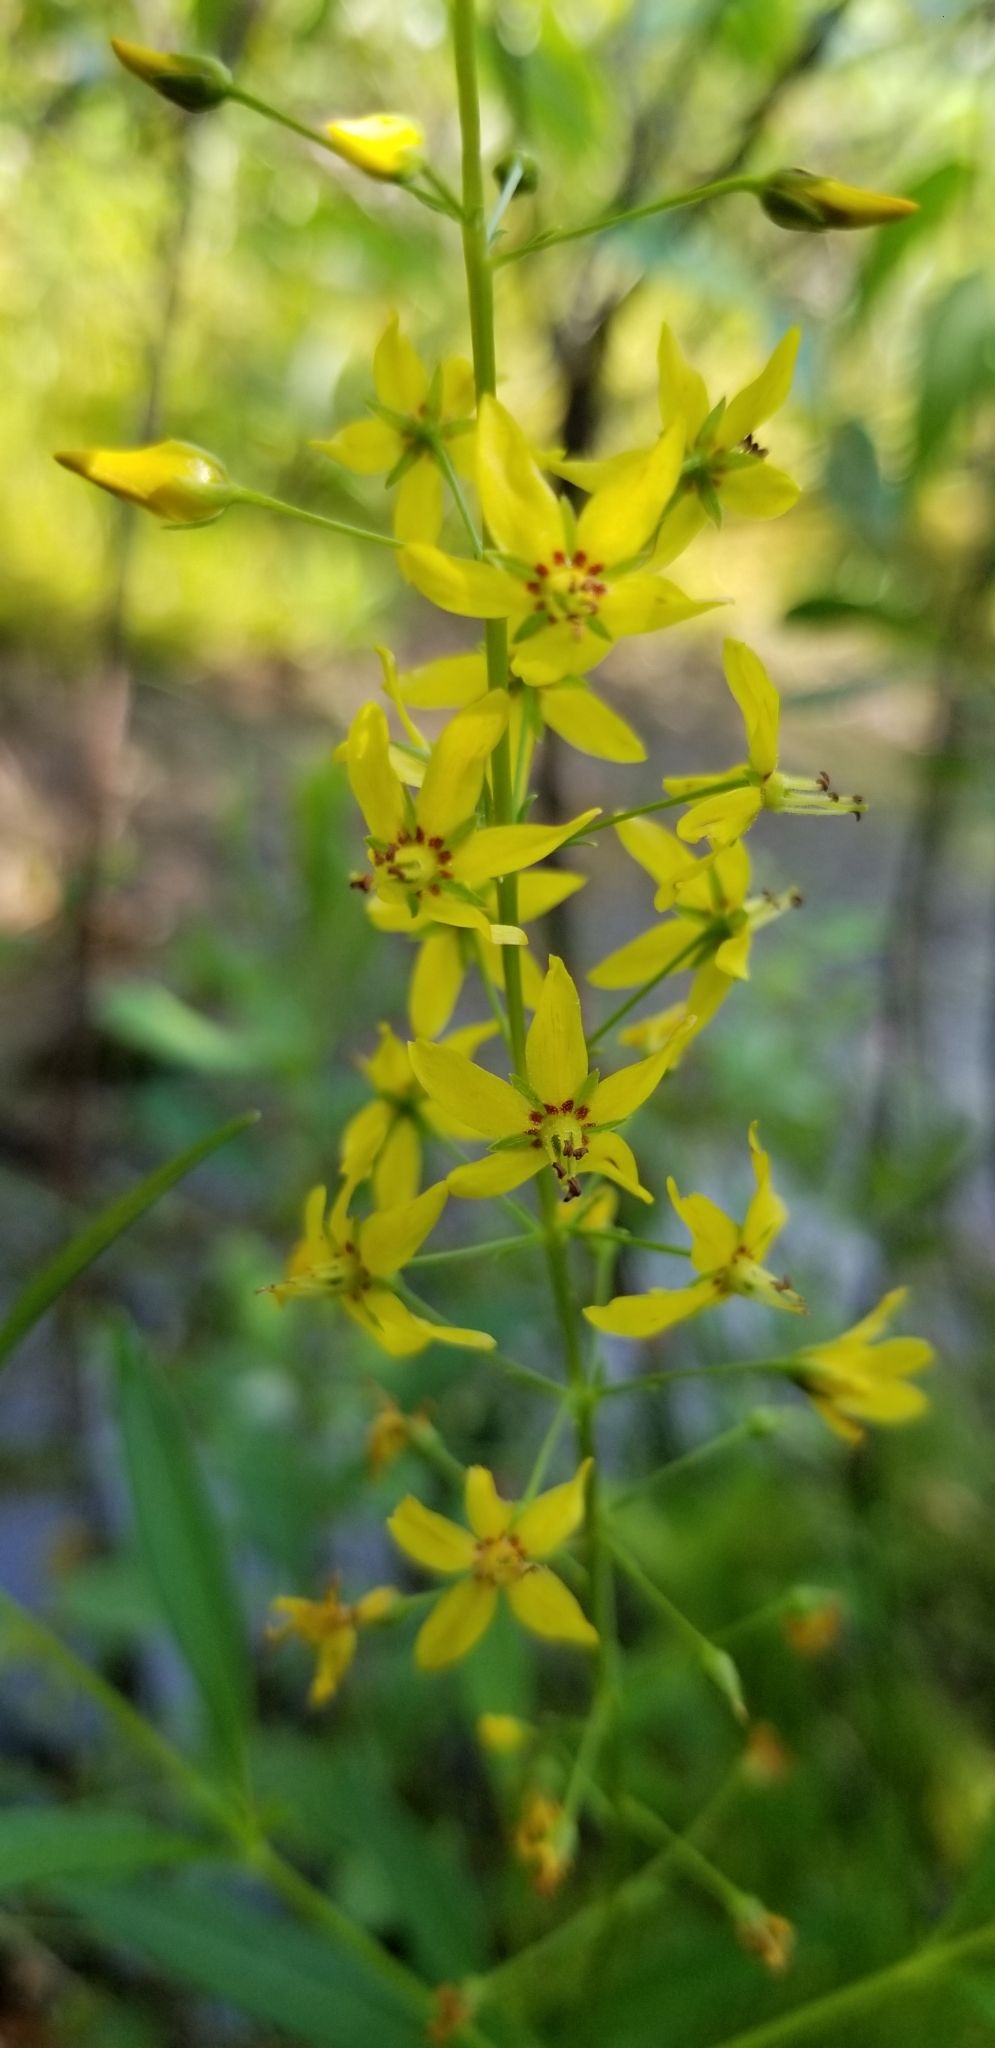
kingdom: Plantae
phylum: Tracheophyta
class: Magnoliopsida
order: Ericales
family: Primulaceae
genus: Lysimachia
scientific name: Lysimachia terrestris
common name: Lake loosestrife
